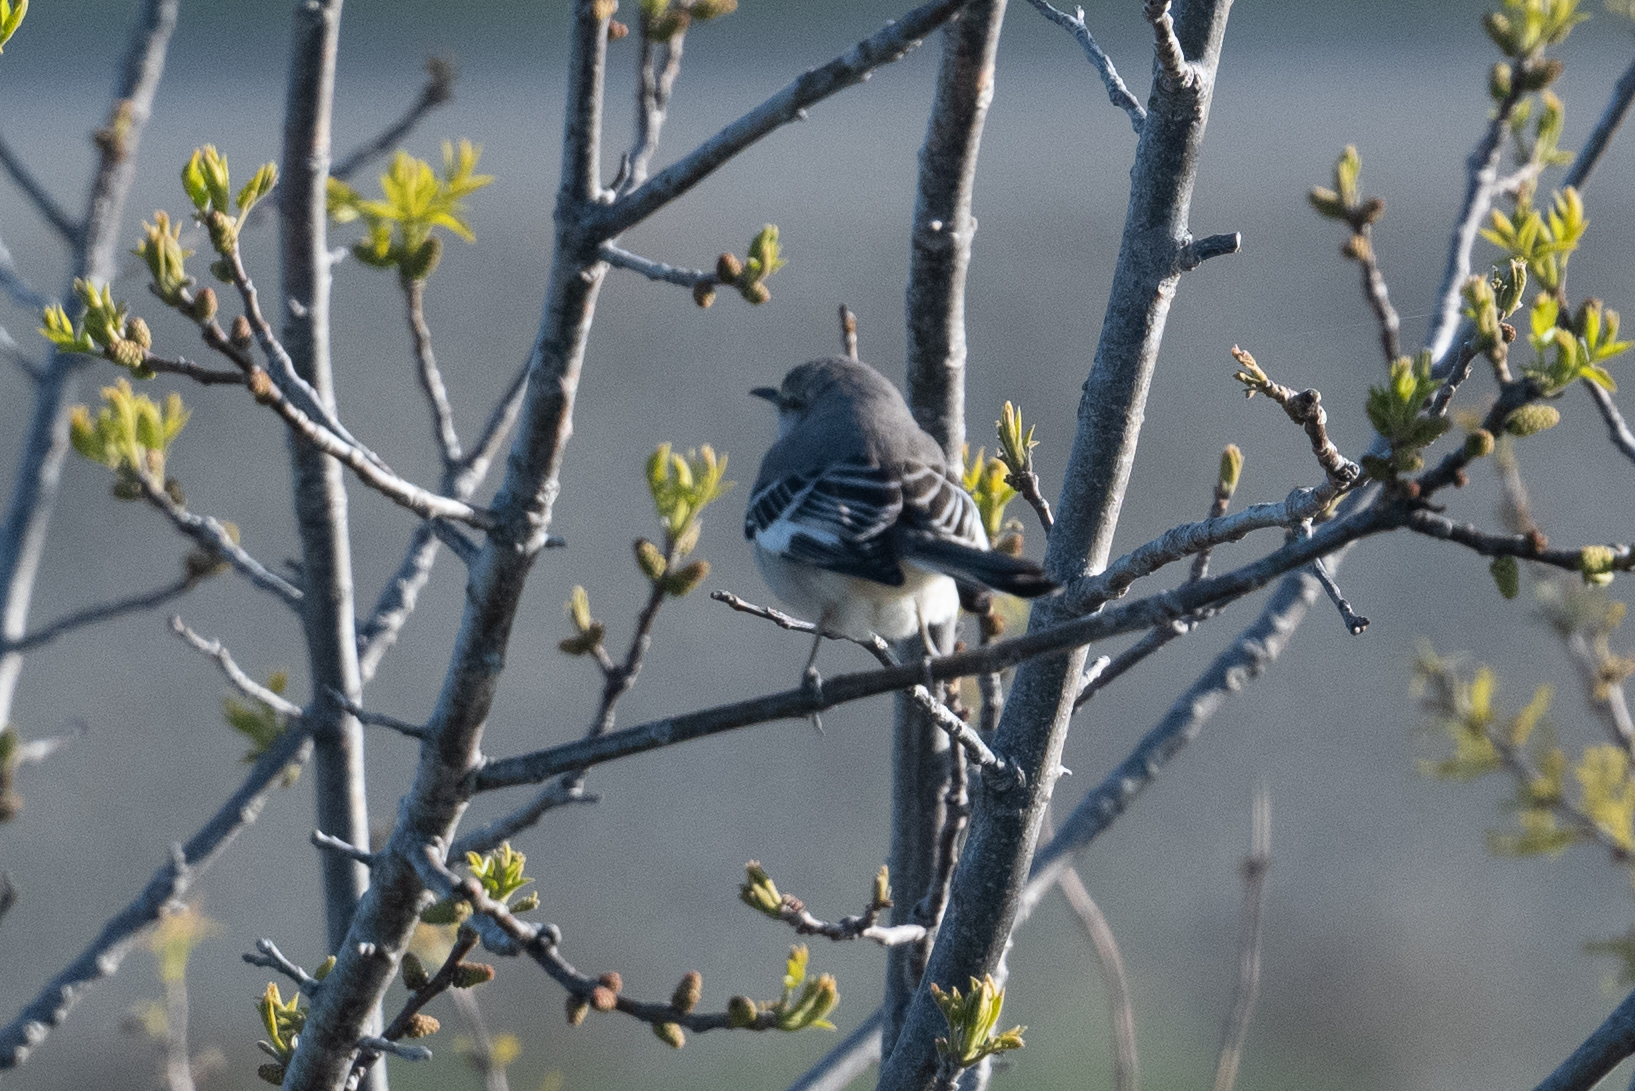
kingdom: Animalia
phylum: Chordata
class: Aves
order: Passeriformes
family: Mimidae
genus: Mimus
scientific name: Mimus polyglottos
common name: Northern mockingbird
